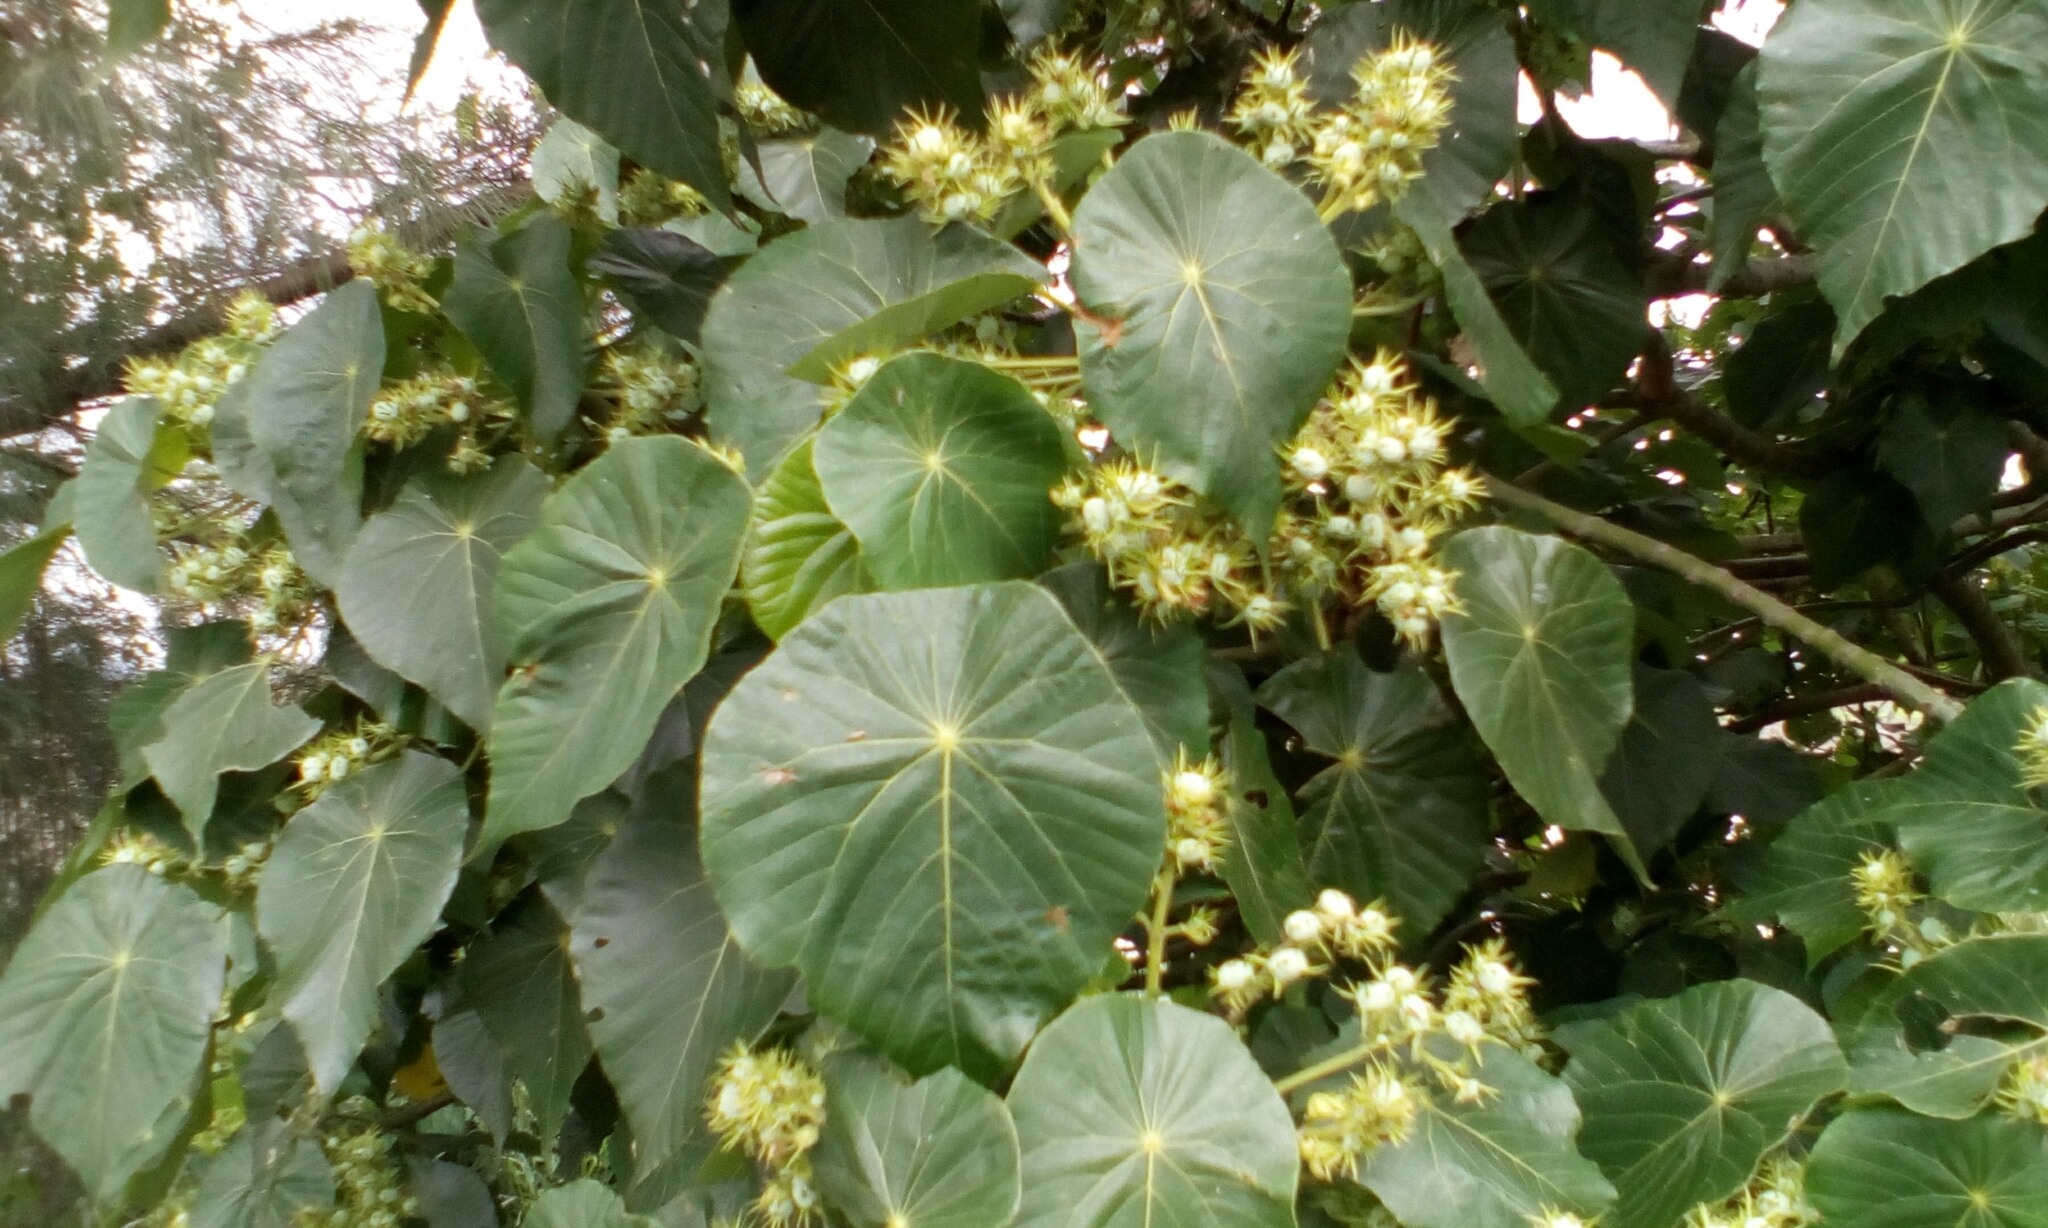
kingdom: Plantae
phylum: Tracheophyta
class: Magnoliopsida
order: Malpighiales
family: Euphorbiaceae
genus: Macaranga
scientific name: Macaranga tanarius
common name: Parasol leaf tree
